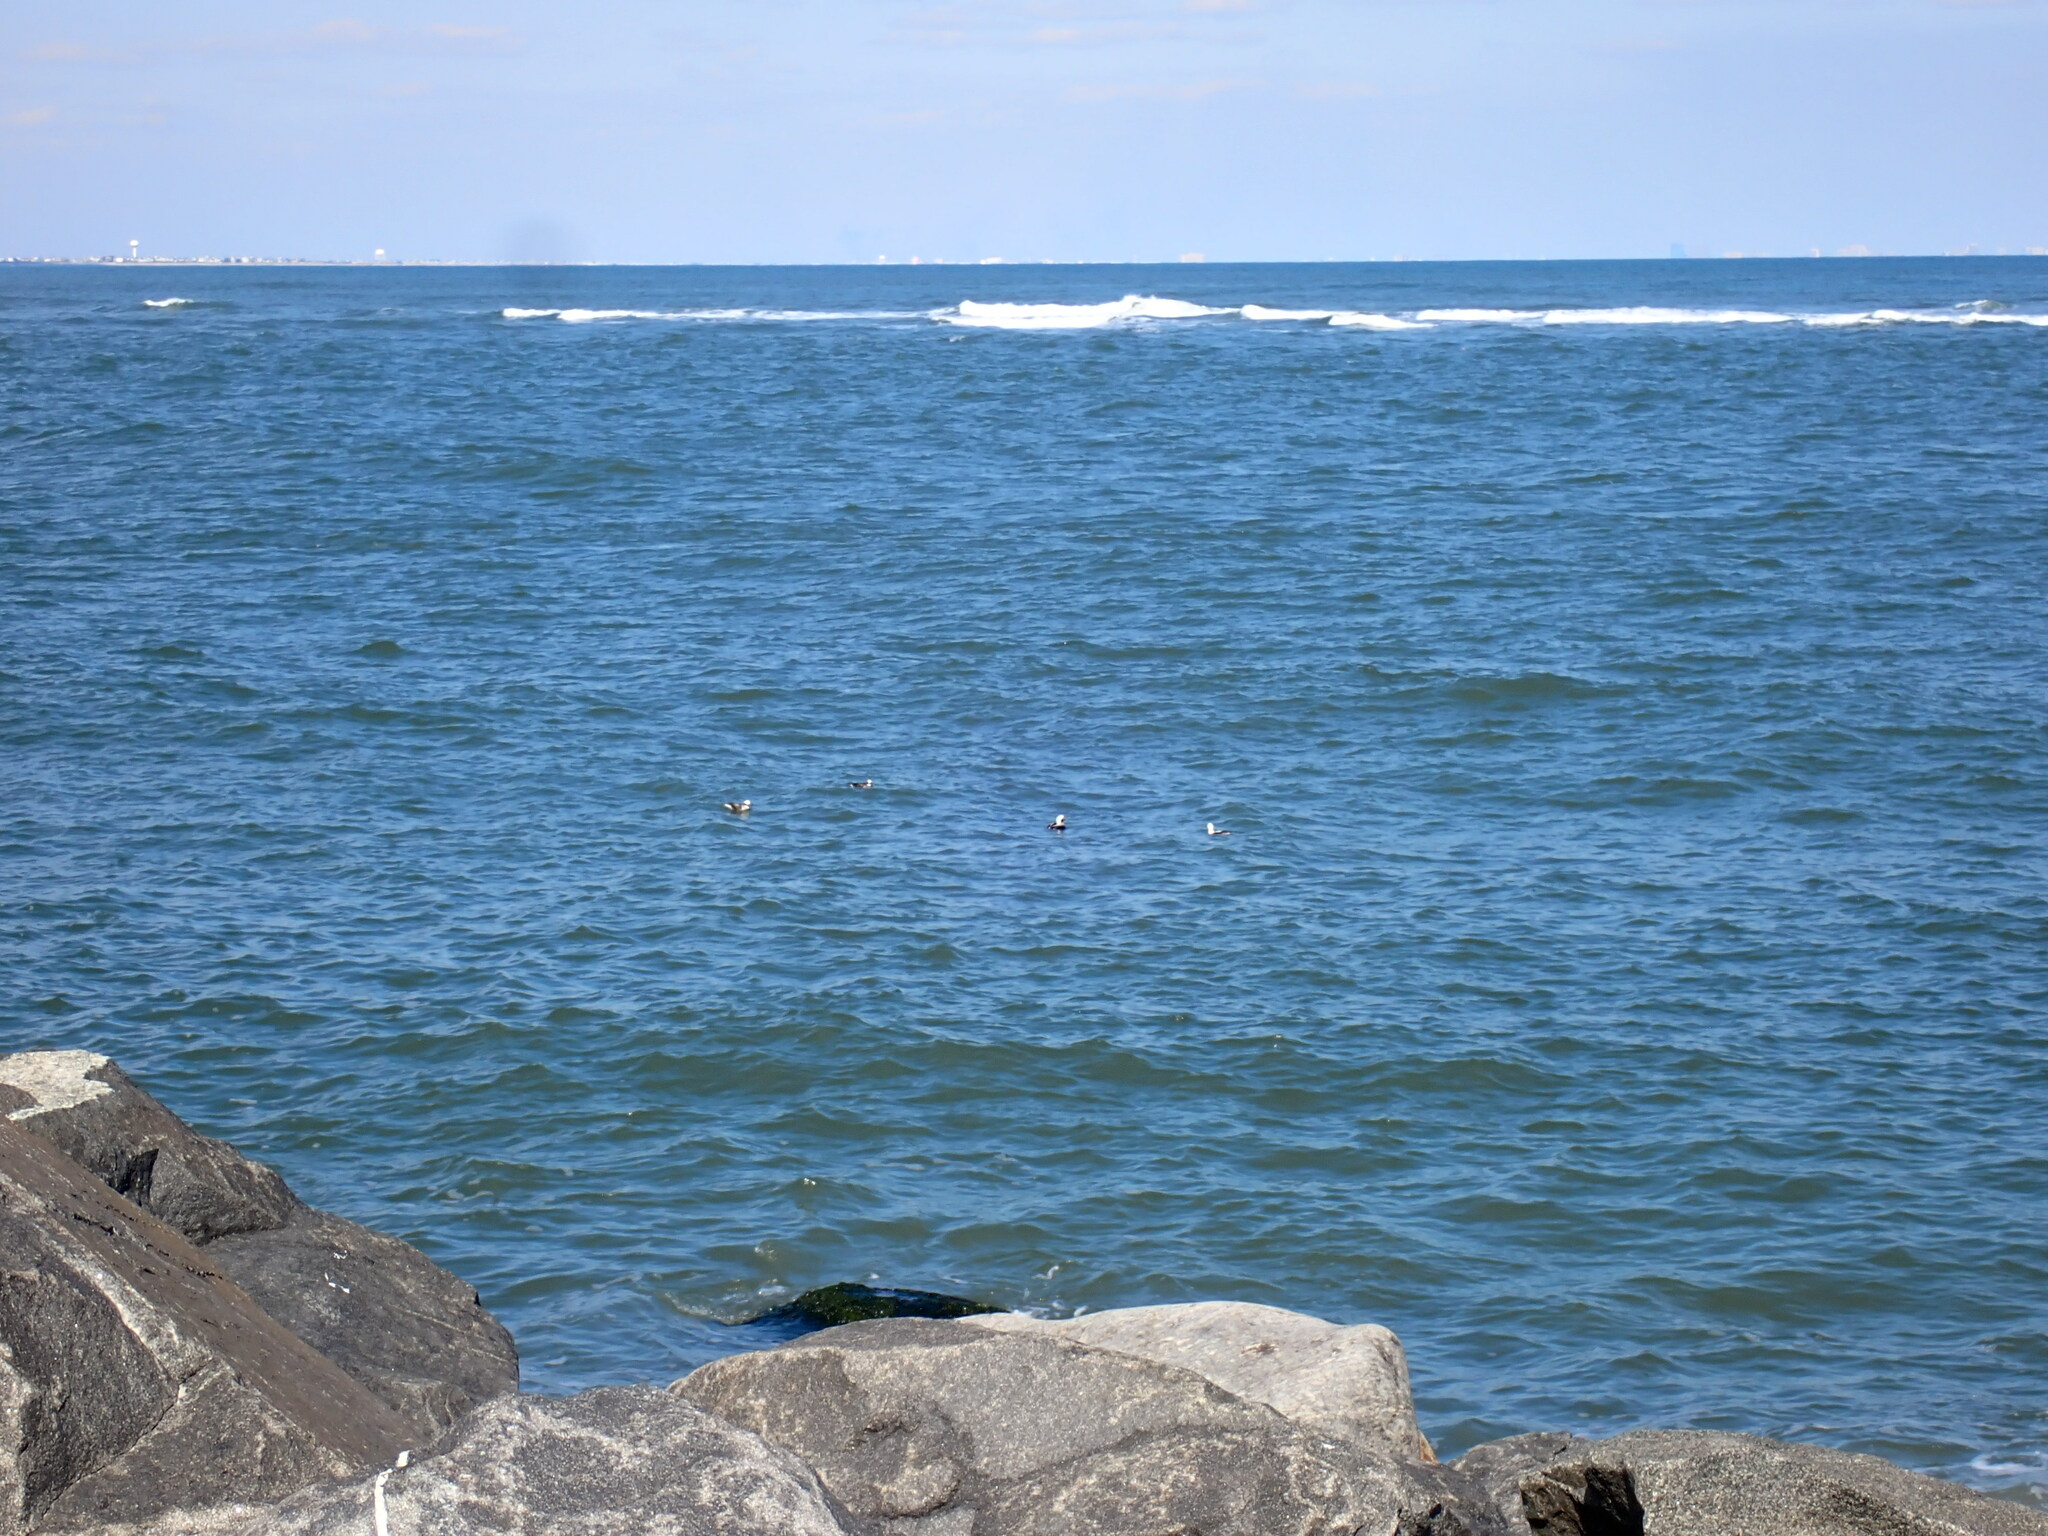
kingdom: Animalia
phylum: Chordata
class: Aves
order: Anseriformes
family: Anatidae
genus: Clangula
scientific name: Clangula hyemalis
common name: Long-tailed duck
